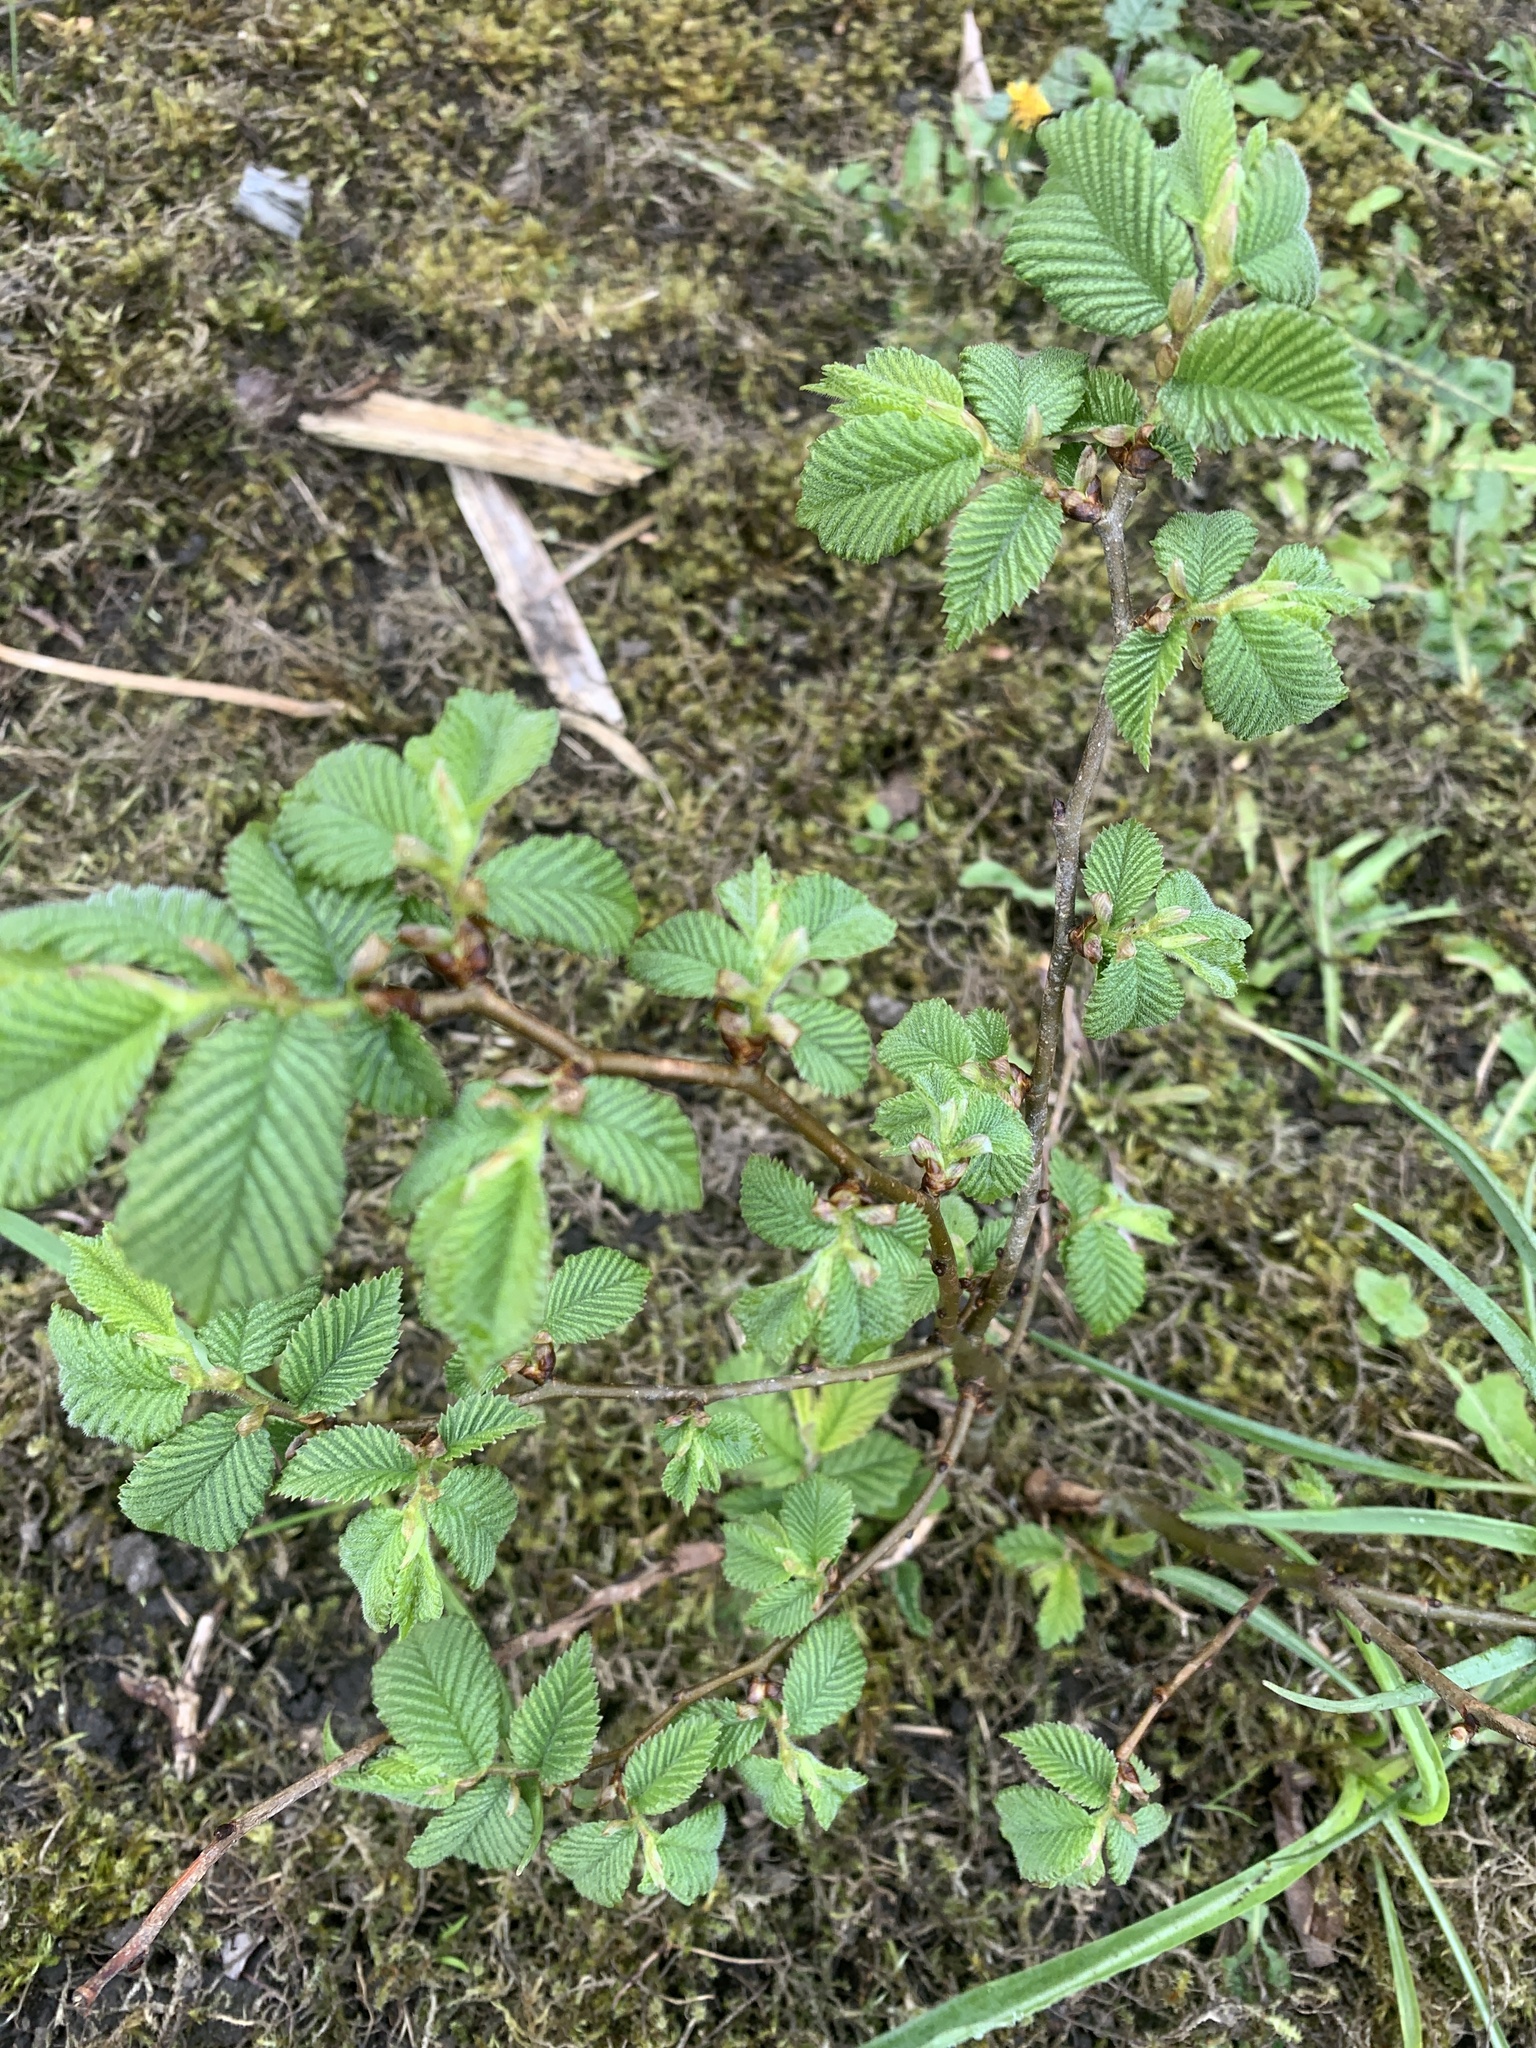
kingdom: Plantae
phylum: Tracheophyta
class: Magnoliopsida
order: Rosales
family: Ulmaceae
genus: Ulmus
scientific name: Ulmus glabra
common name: Wych elm
